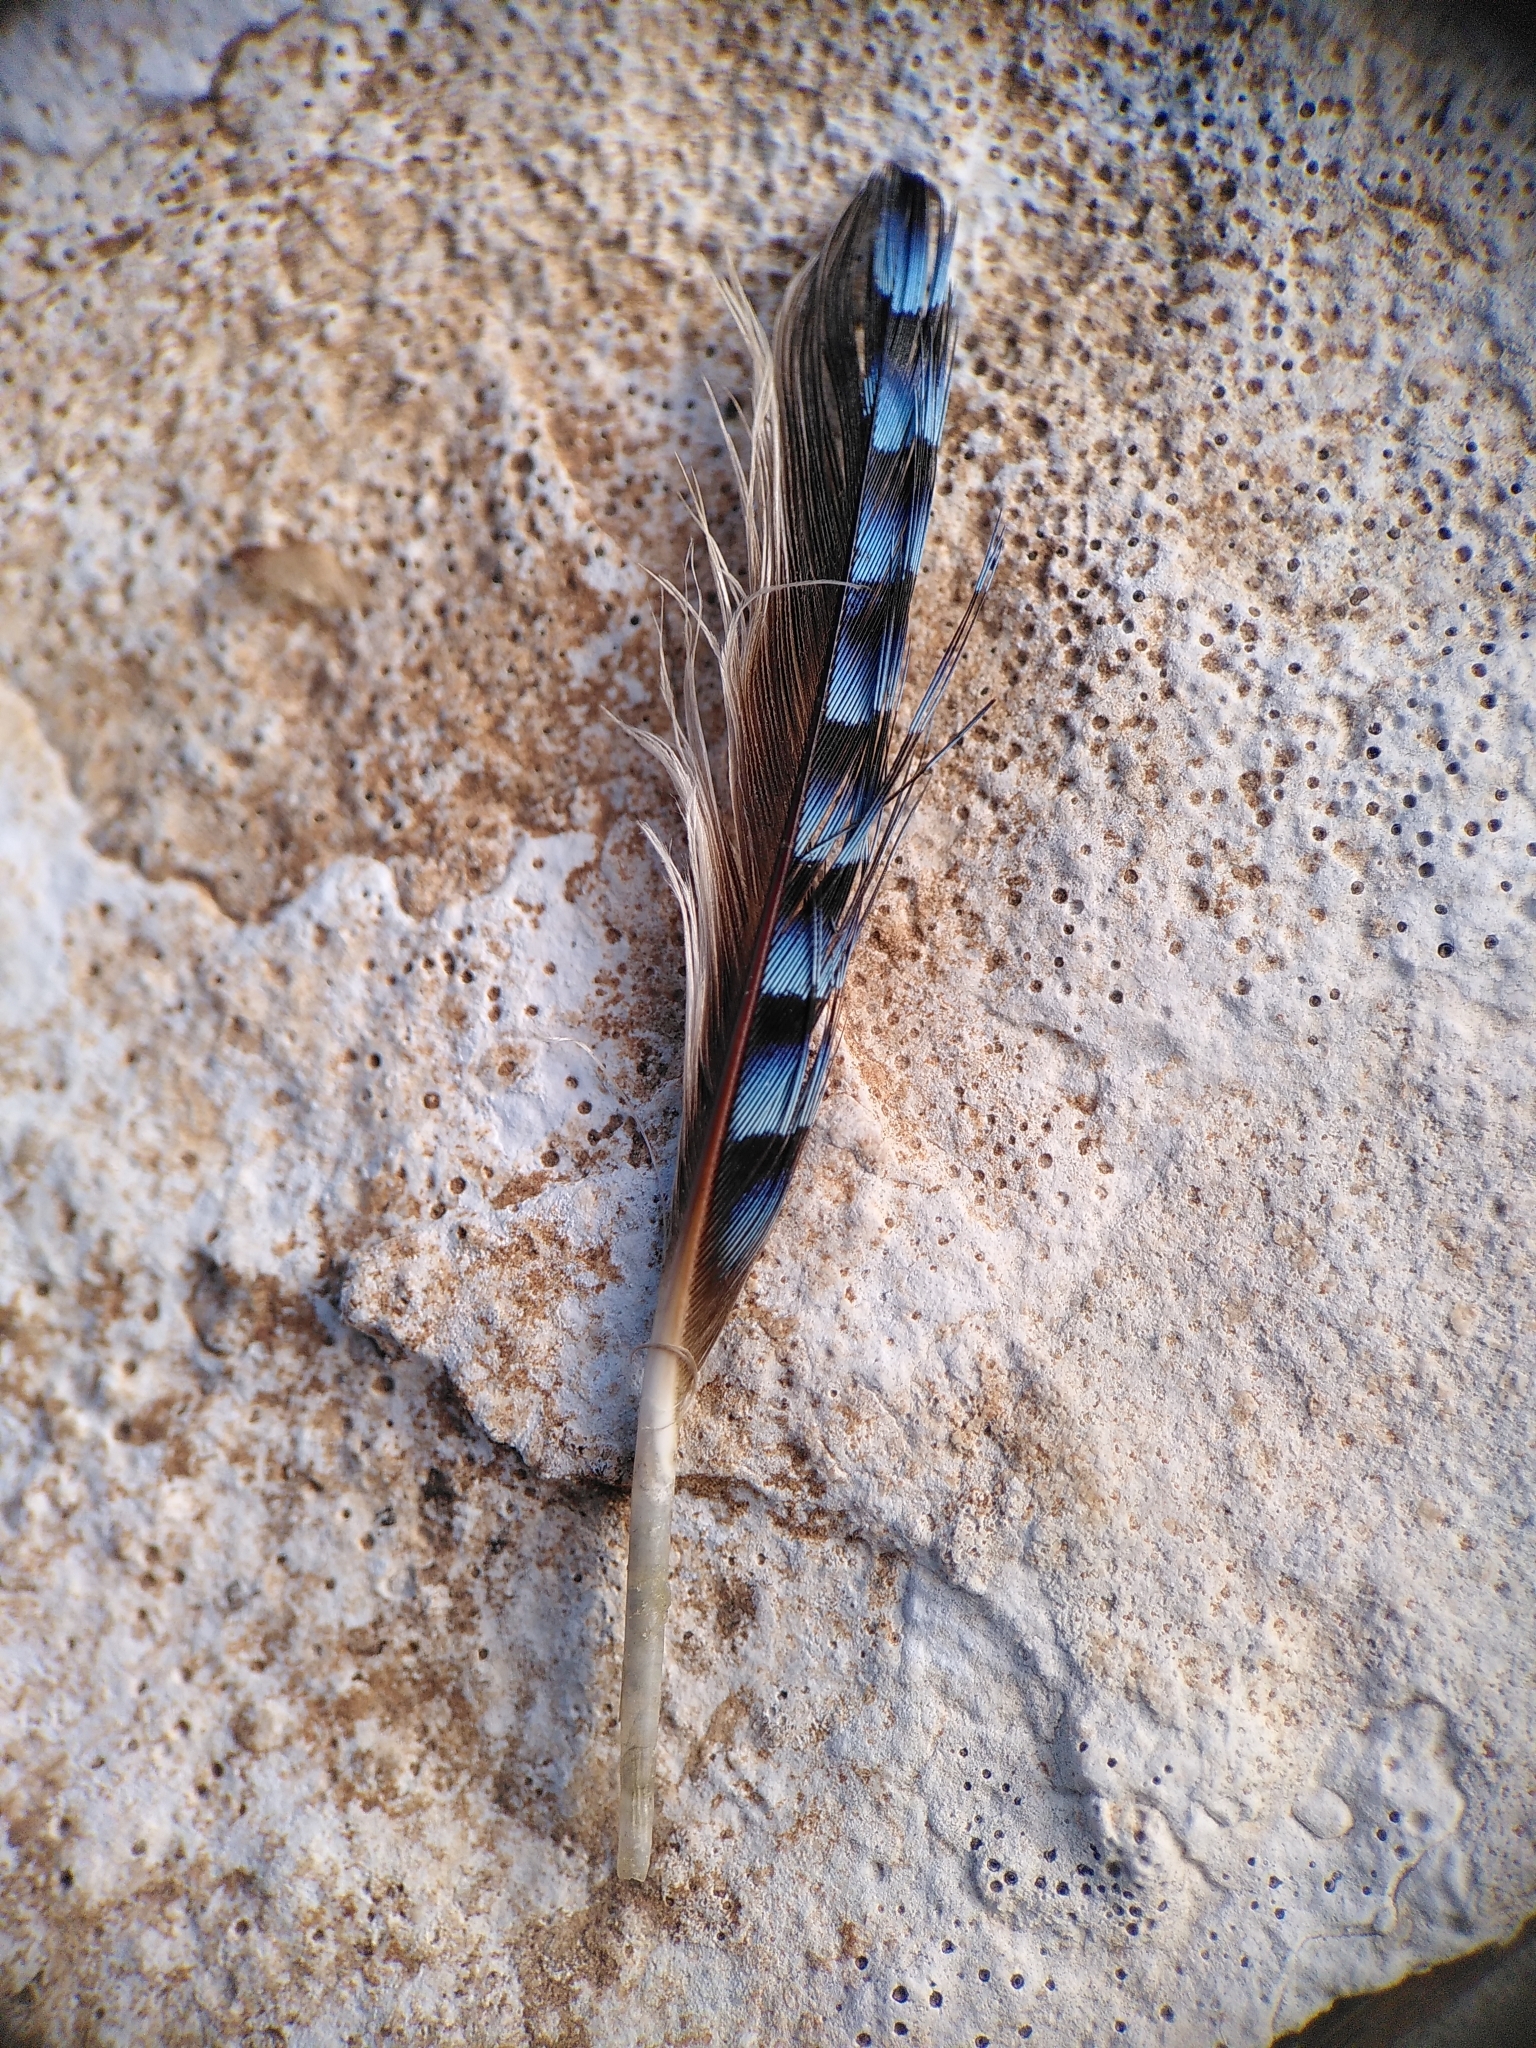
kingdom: Animalia
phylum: Chordata
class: Aves
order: Passeriformes
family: Corvidae
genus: Garrulus
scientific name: Garrulus glandarius
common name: Eurasian jay
